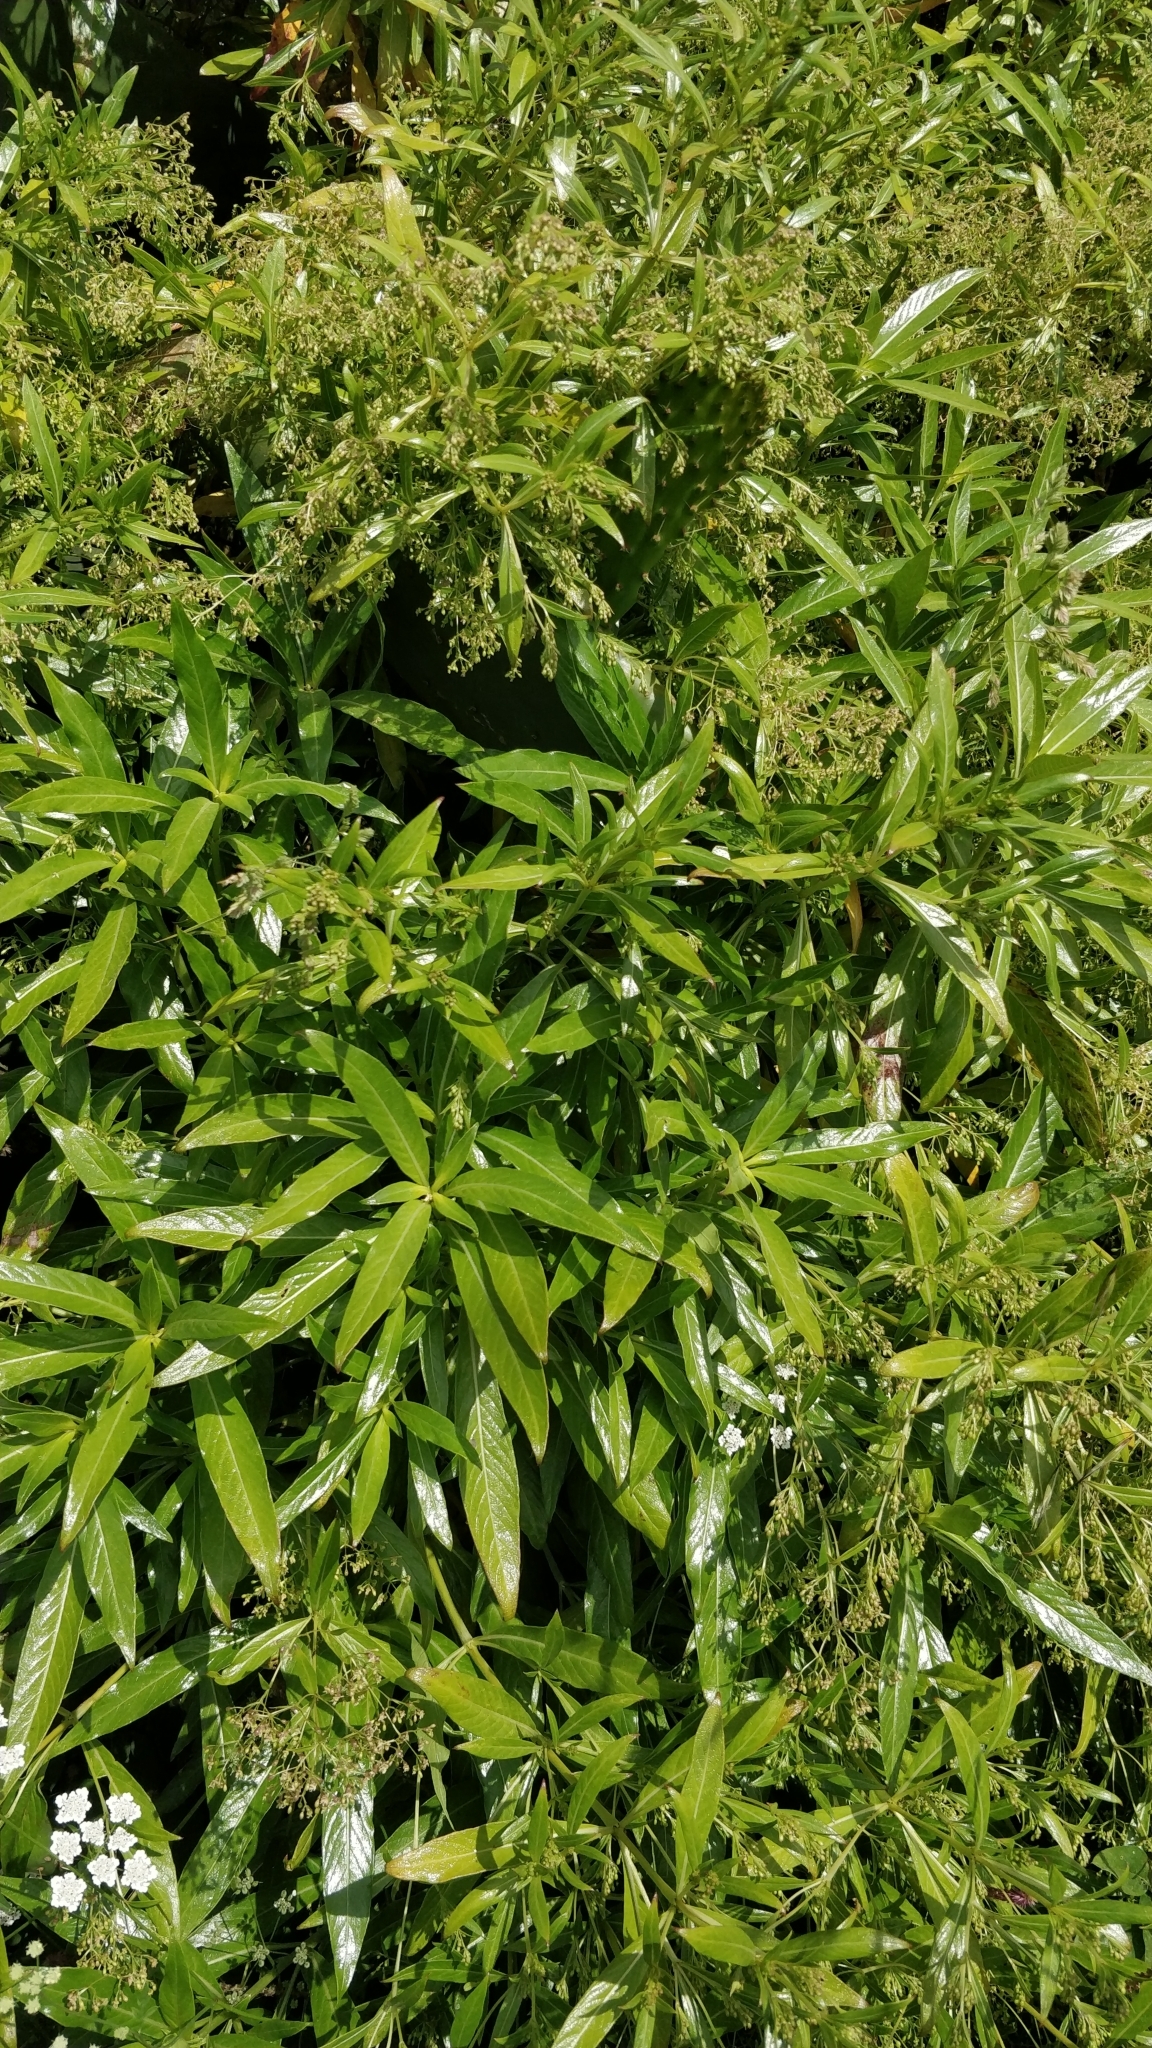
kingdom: Plantae
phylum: Tracheophyta
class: Magnoliopsida
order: Gentianales
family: Rubiaceae
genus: Phyllis
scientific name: Phyllis nobla
